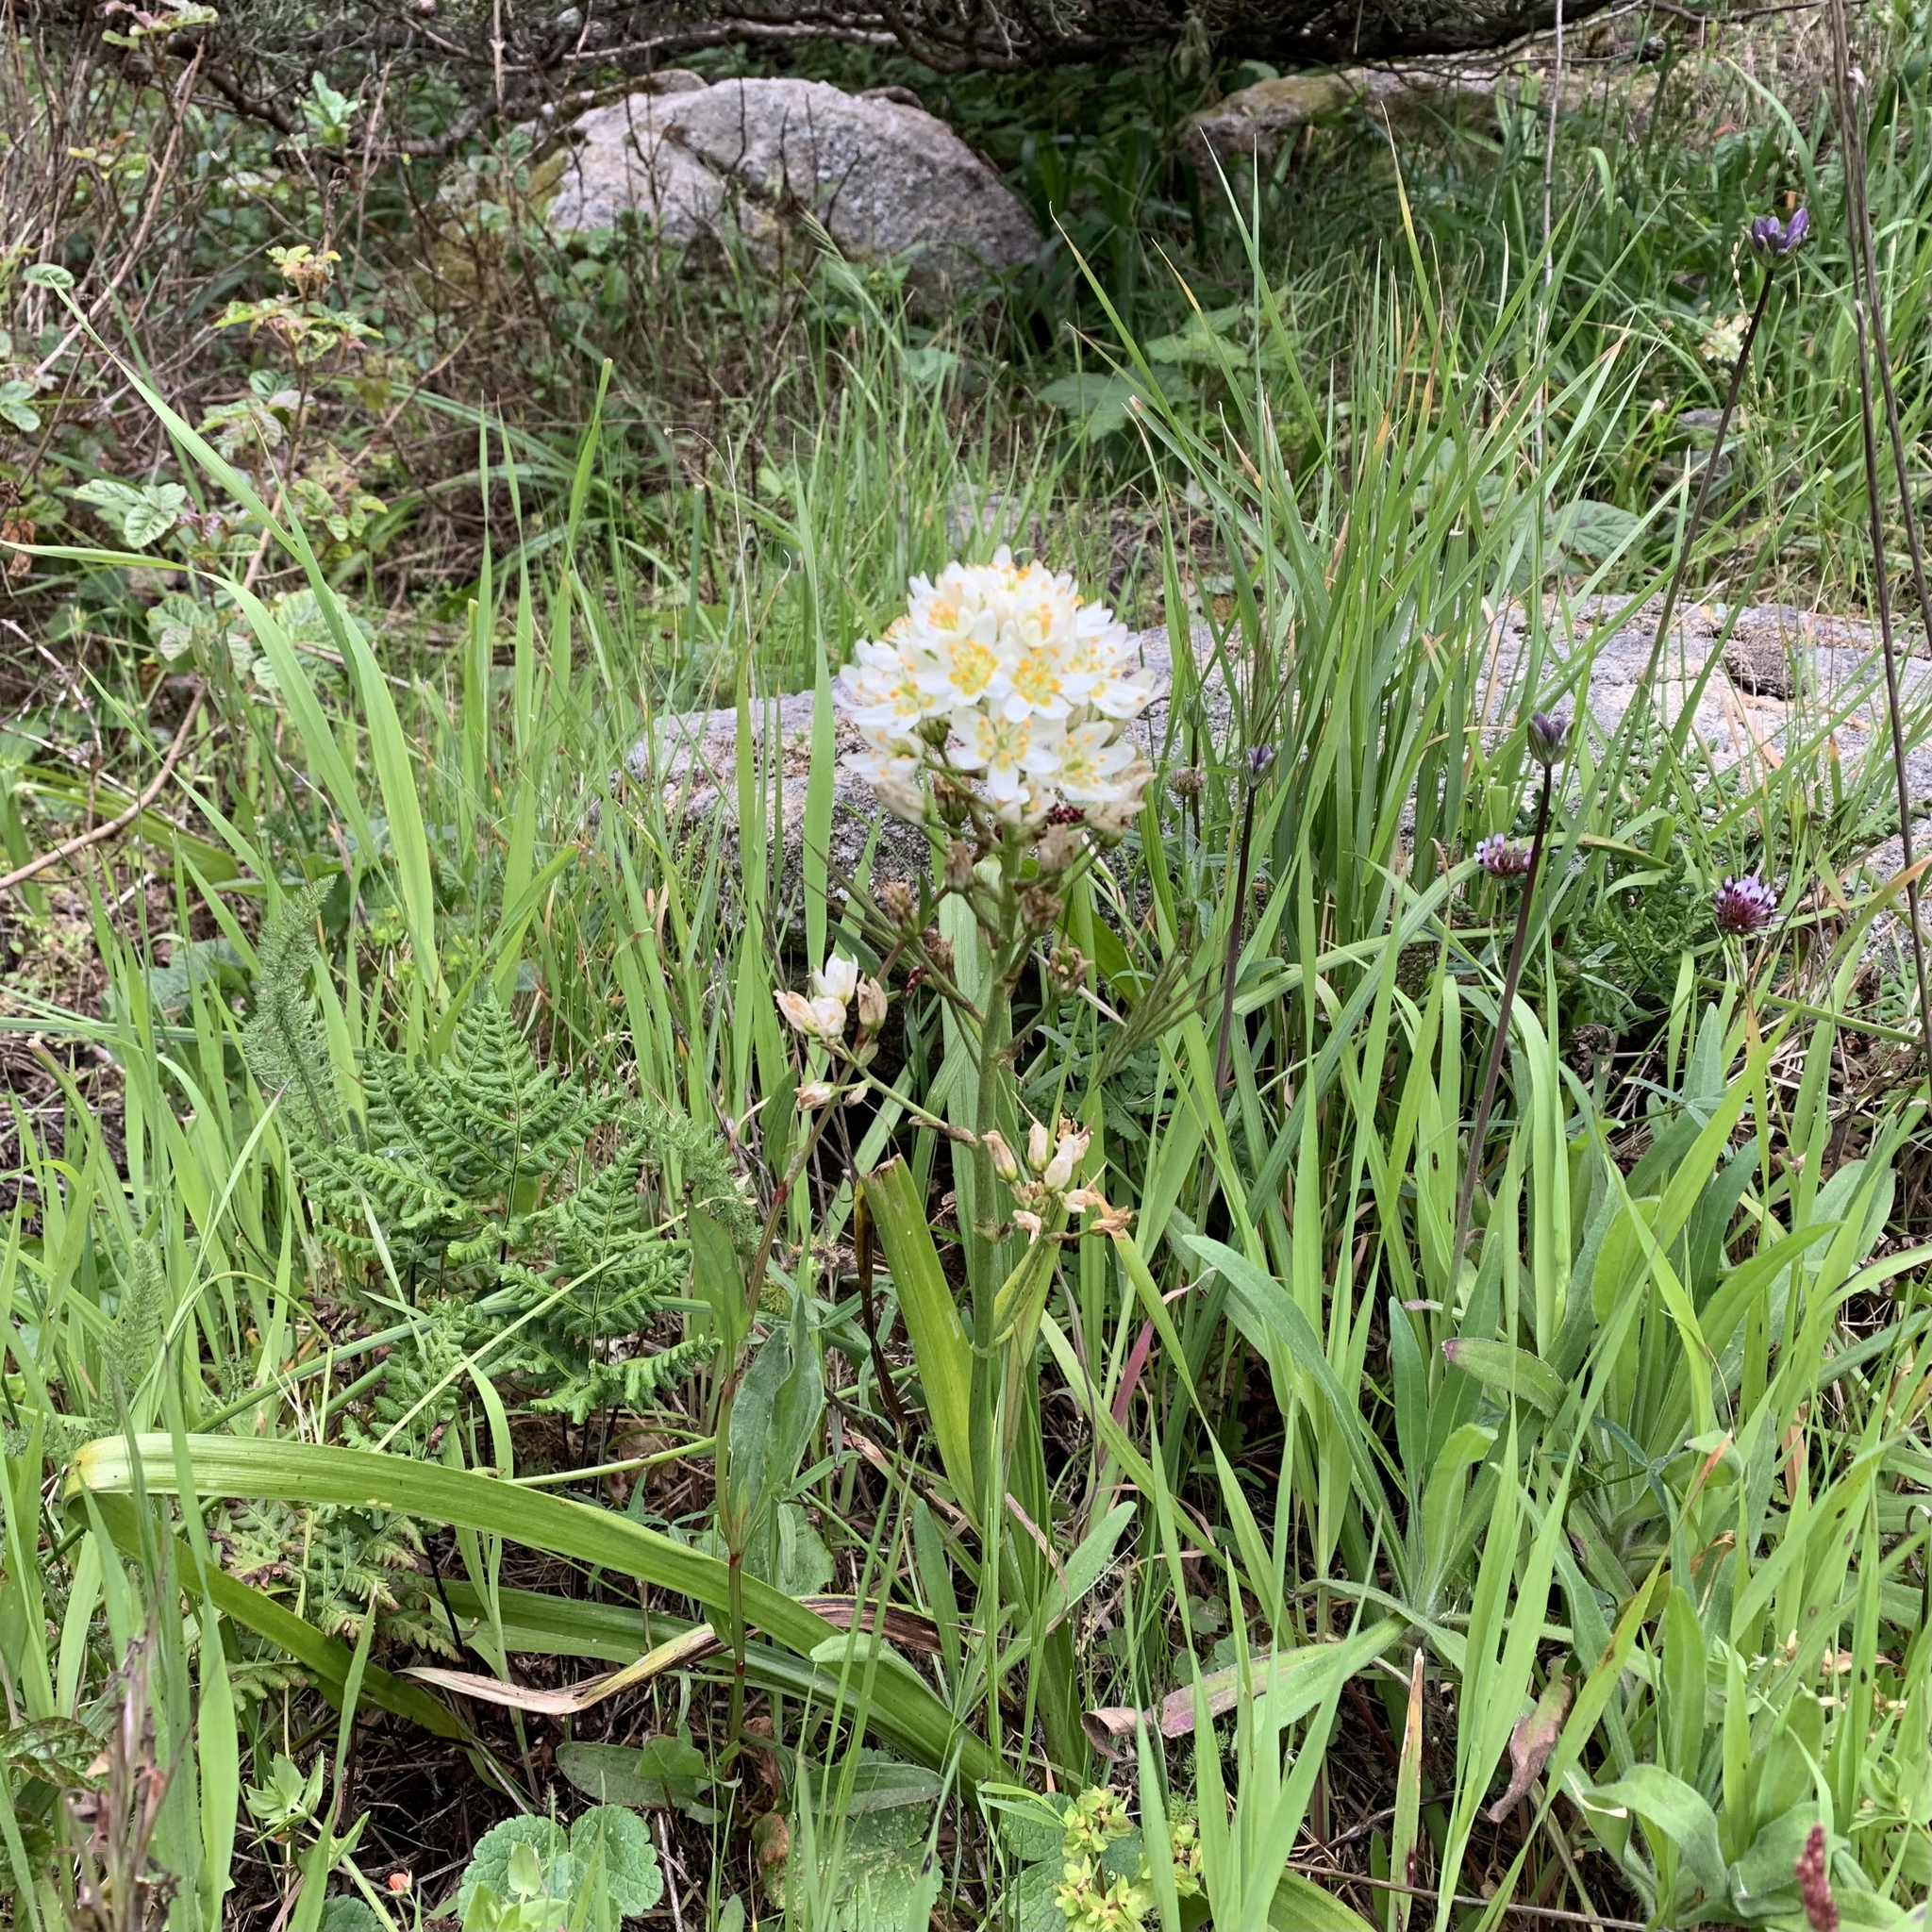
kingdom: Plantae
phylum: Tracheophyta
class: Liliopsida
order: Liliales
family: Melanthiaceae
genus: Toxicoscordion
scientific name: Toxicoscordion fremontii
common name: Fremont's death camas
